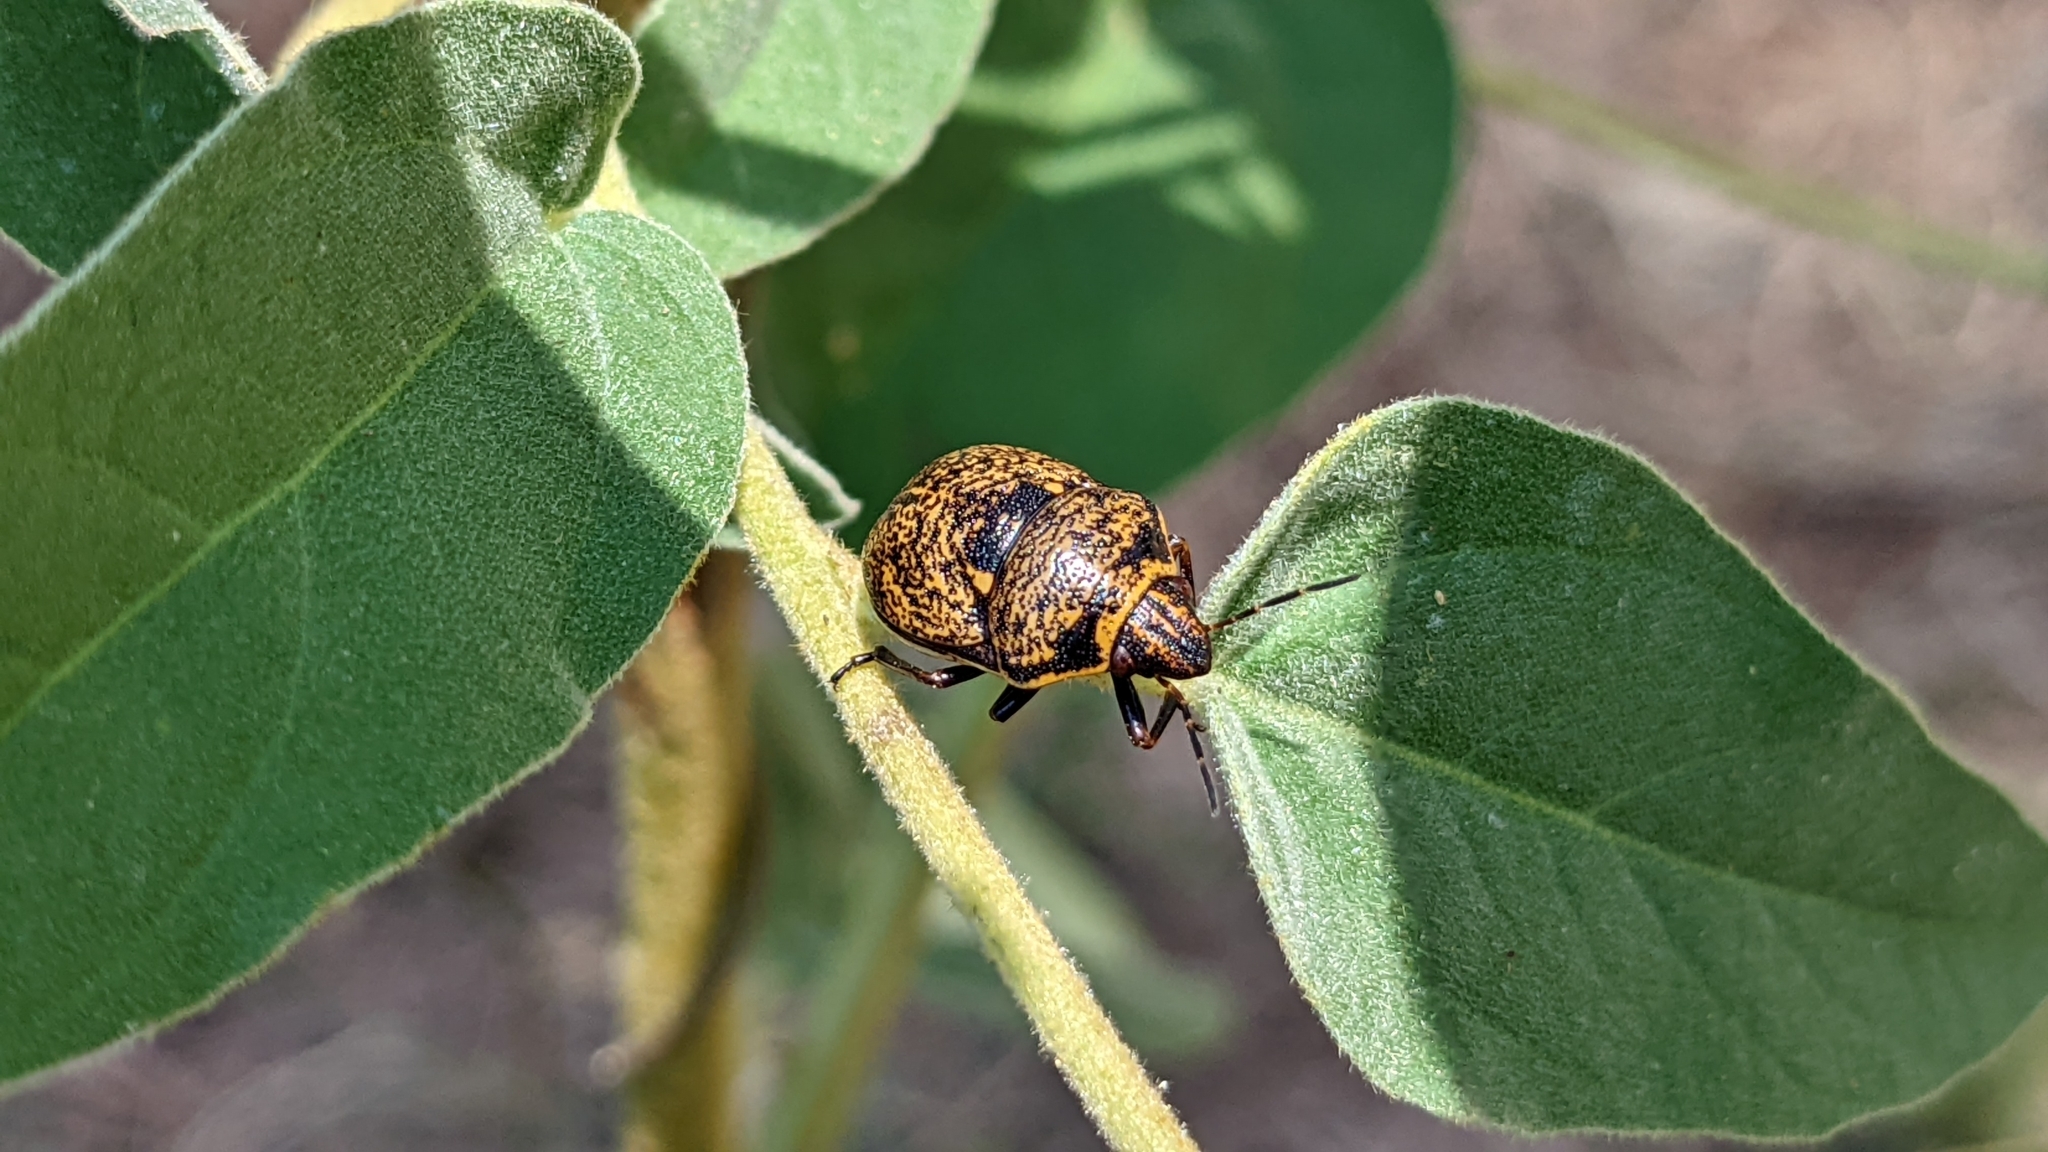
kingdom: Animalia
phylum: Arthropoda
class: Insecta
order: Hemiptera
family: Scutelleridae
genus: Orsilochides
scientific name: Orsilochides guttata
